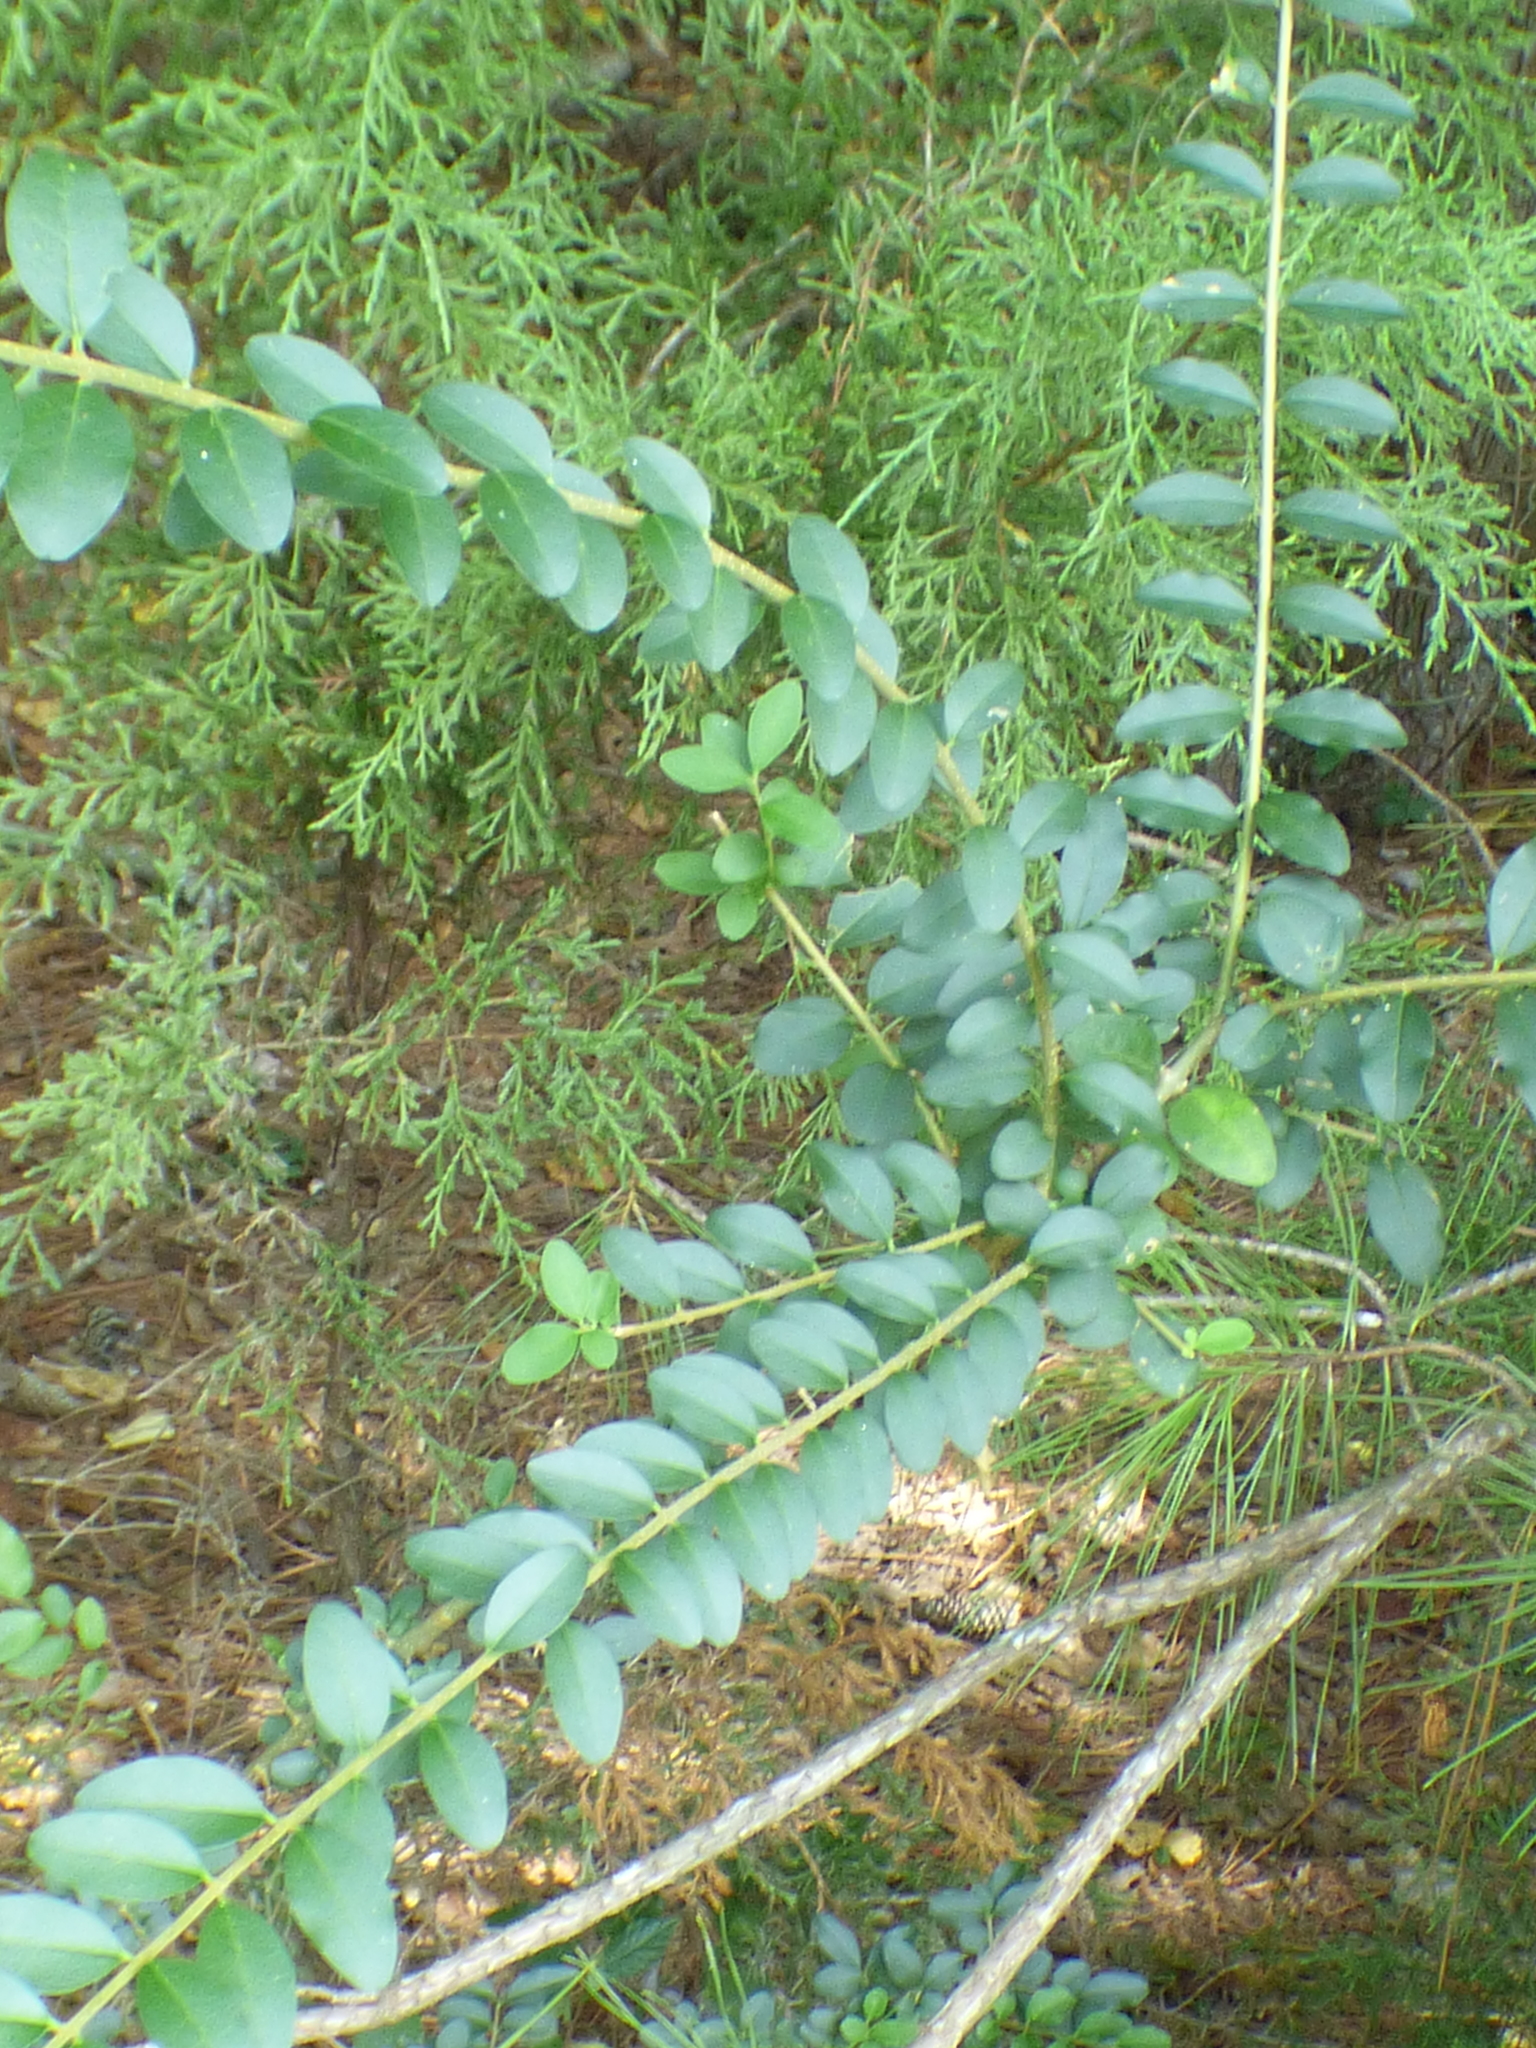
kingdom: Plantae
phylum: Tracheophyta
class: Magnoliopsida
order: Lamiales
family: Oleaceae
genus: Ligustrum
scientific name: Ligustrum sinense
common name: Chinese privet
